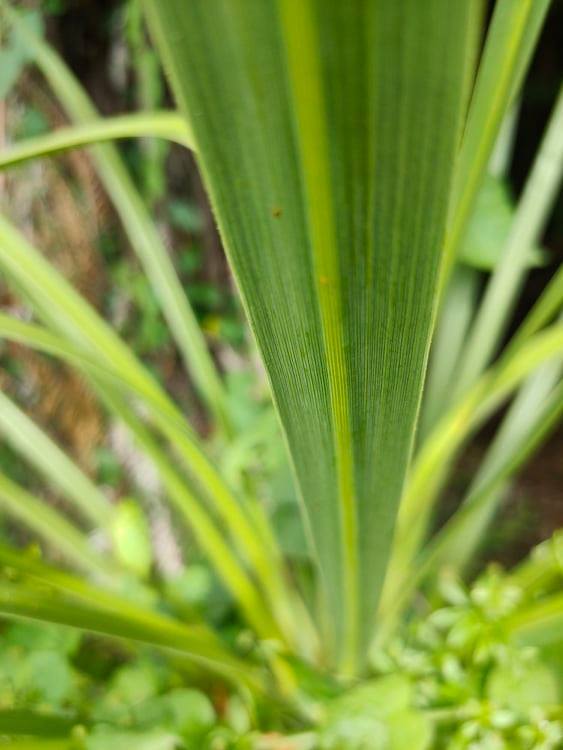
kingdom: Plantae
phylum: Tracheophyta
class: Liliopsida
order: Asparagales
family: Asparagaceae
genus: Cordyline
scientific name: Cordyline australis
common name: Cabbage-palm
